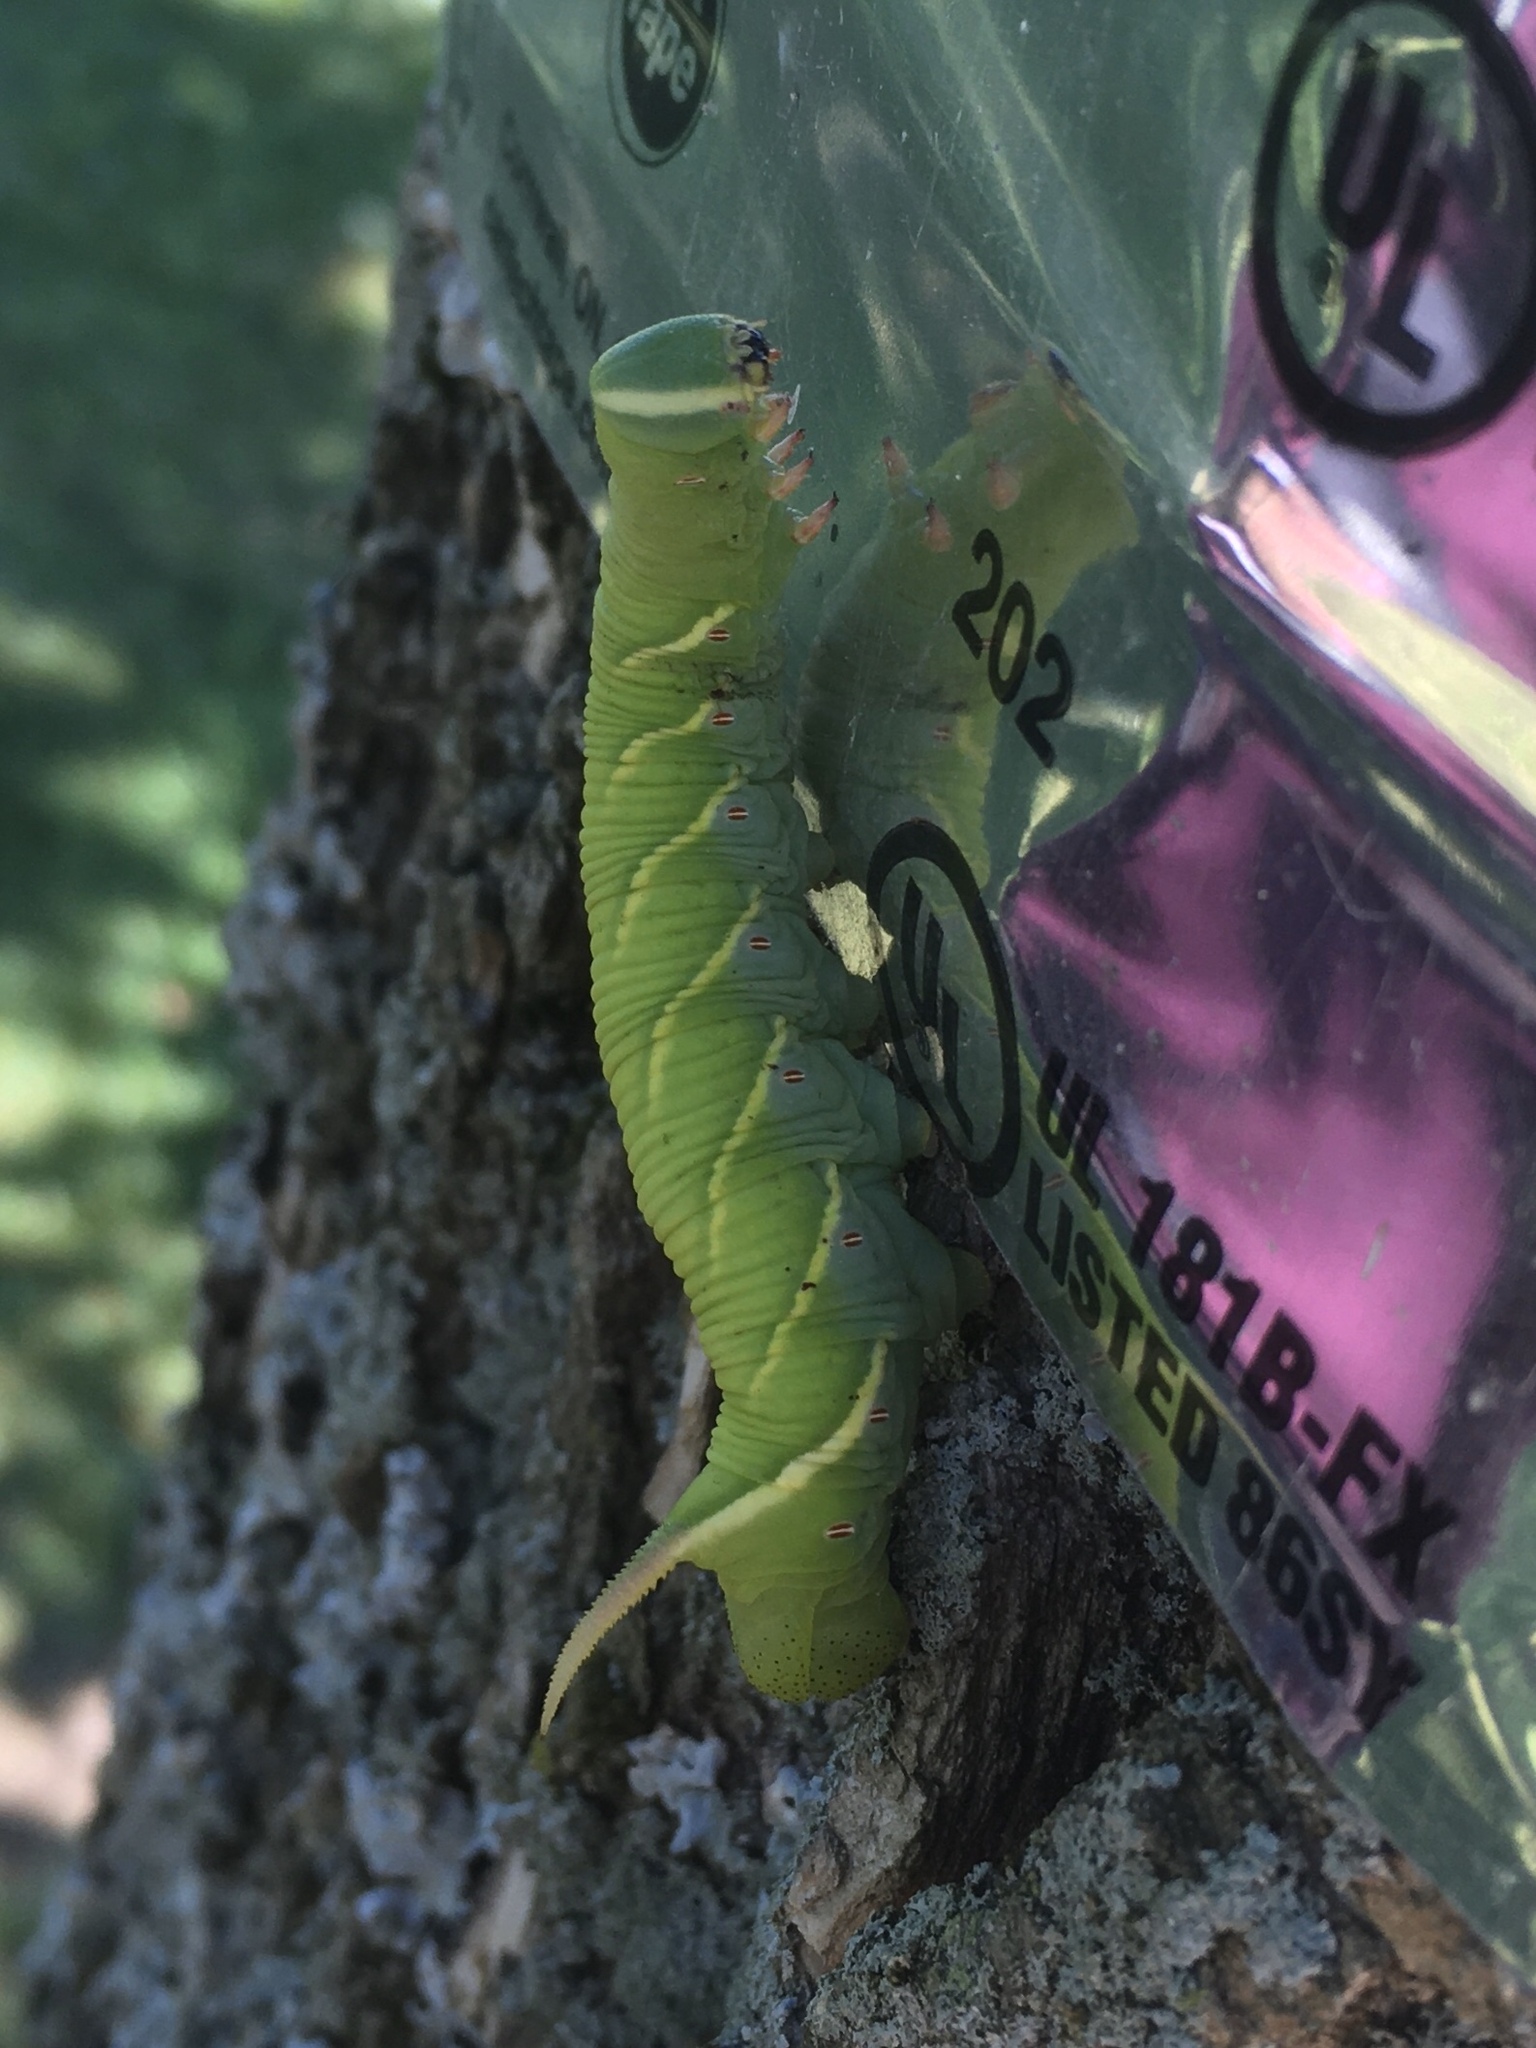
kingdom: Animalia
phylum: Arthropoda
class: Insecta
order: Lepidoptera
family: Sphingidae
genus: Ceratomia
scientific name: Ceratomia undulosa
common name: Waved sphinx
